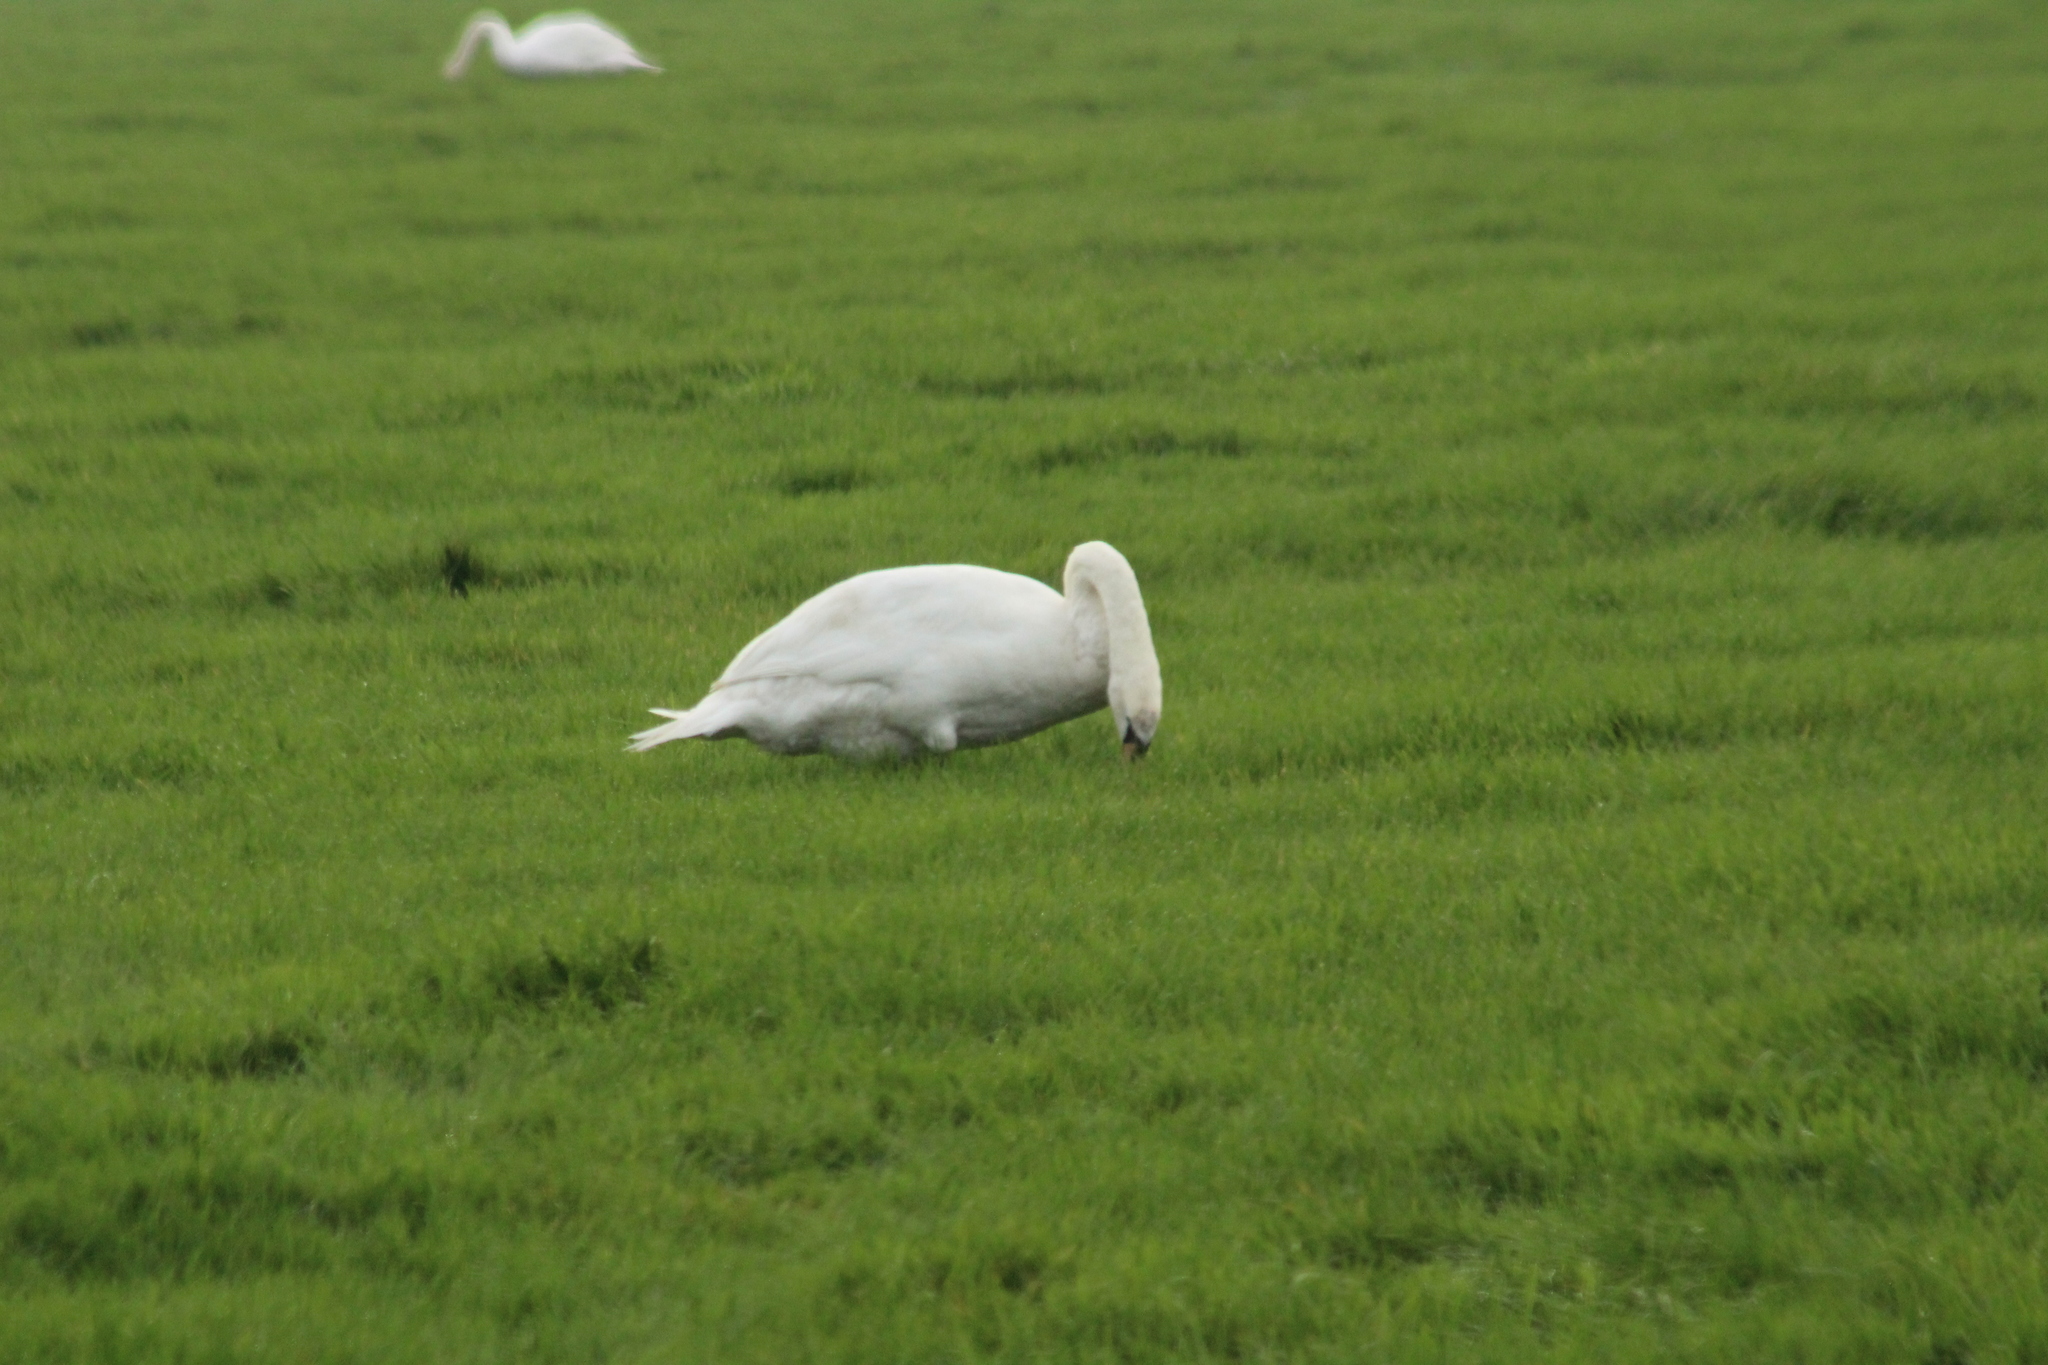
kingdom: Animalia
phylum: Chordata
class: Aves
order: Anseriformes
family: Anatidae
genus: Cygnus
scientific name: Cygnus olor
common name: Mute swan
